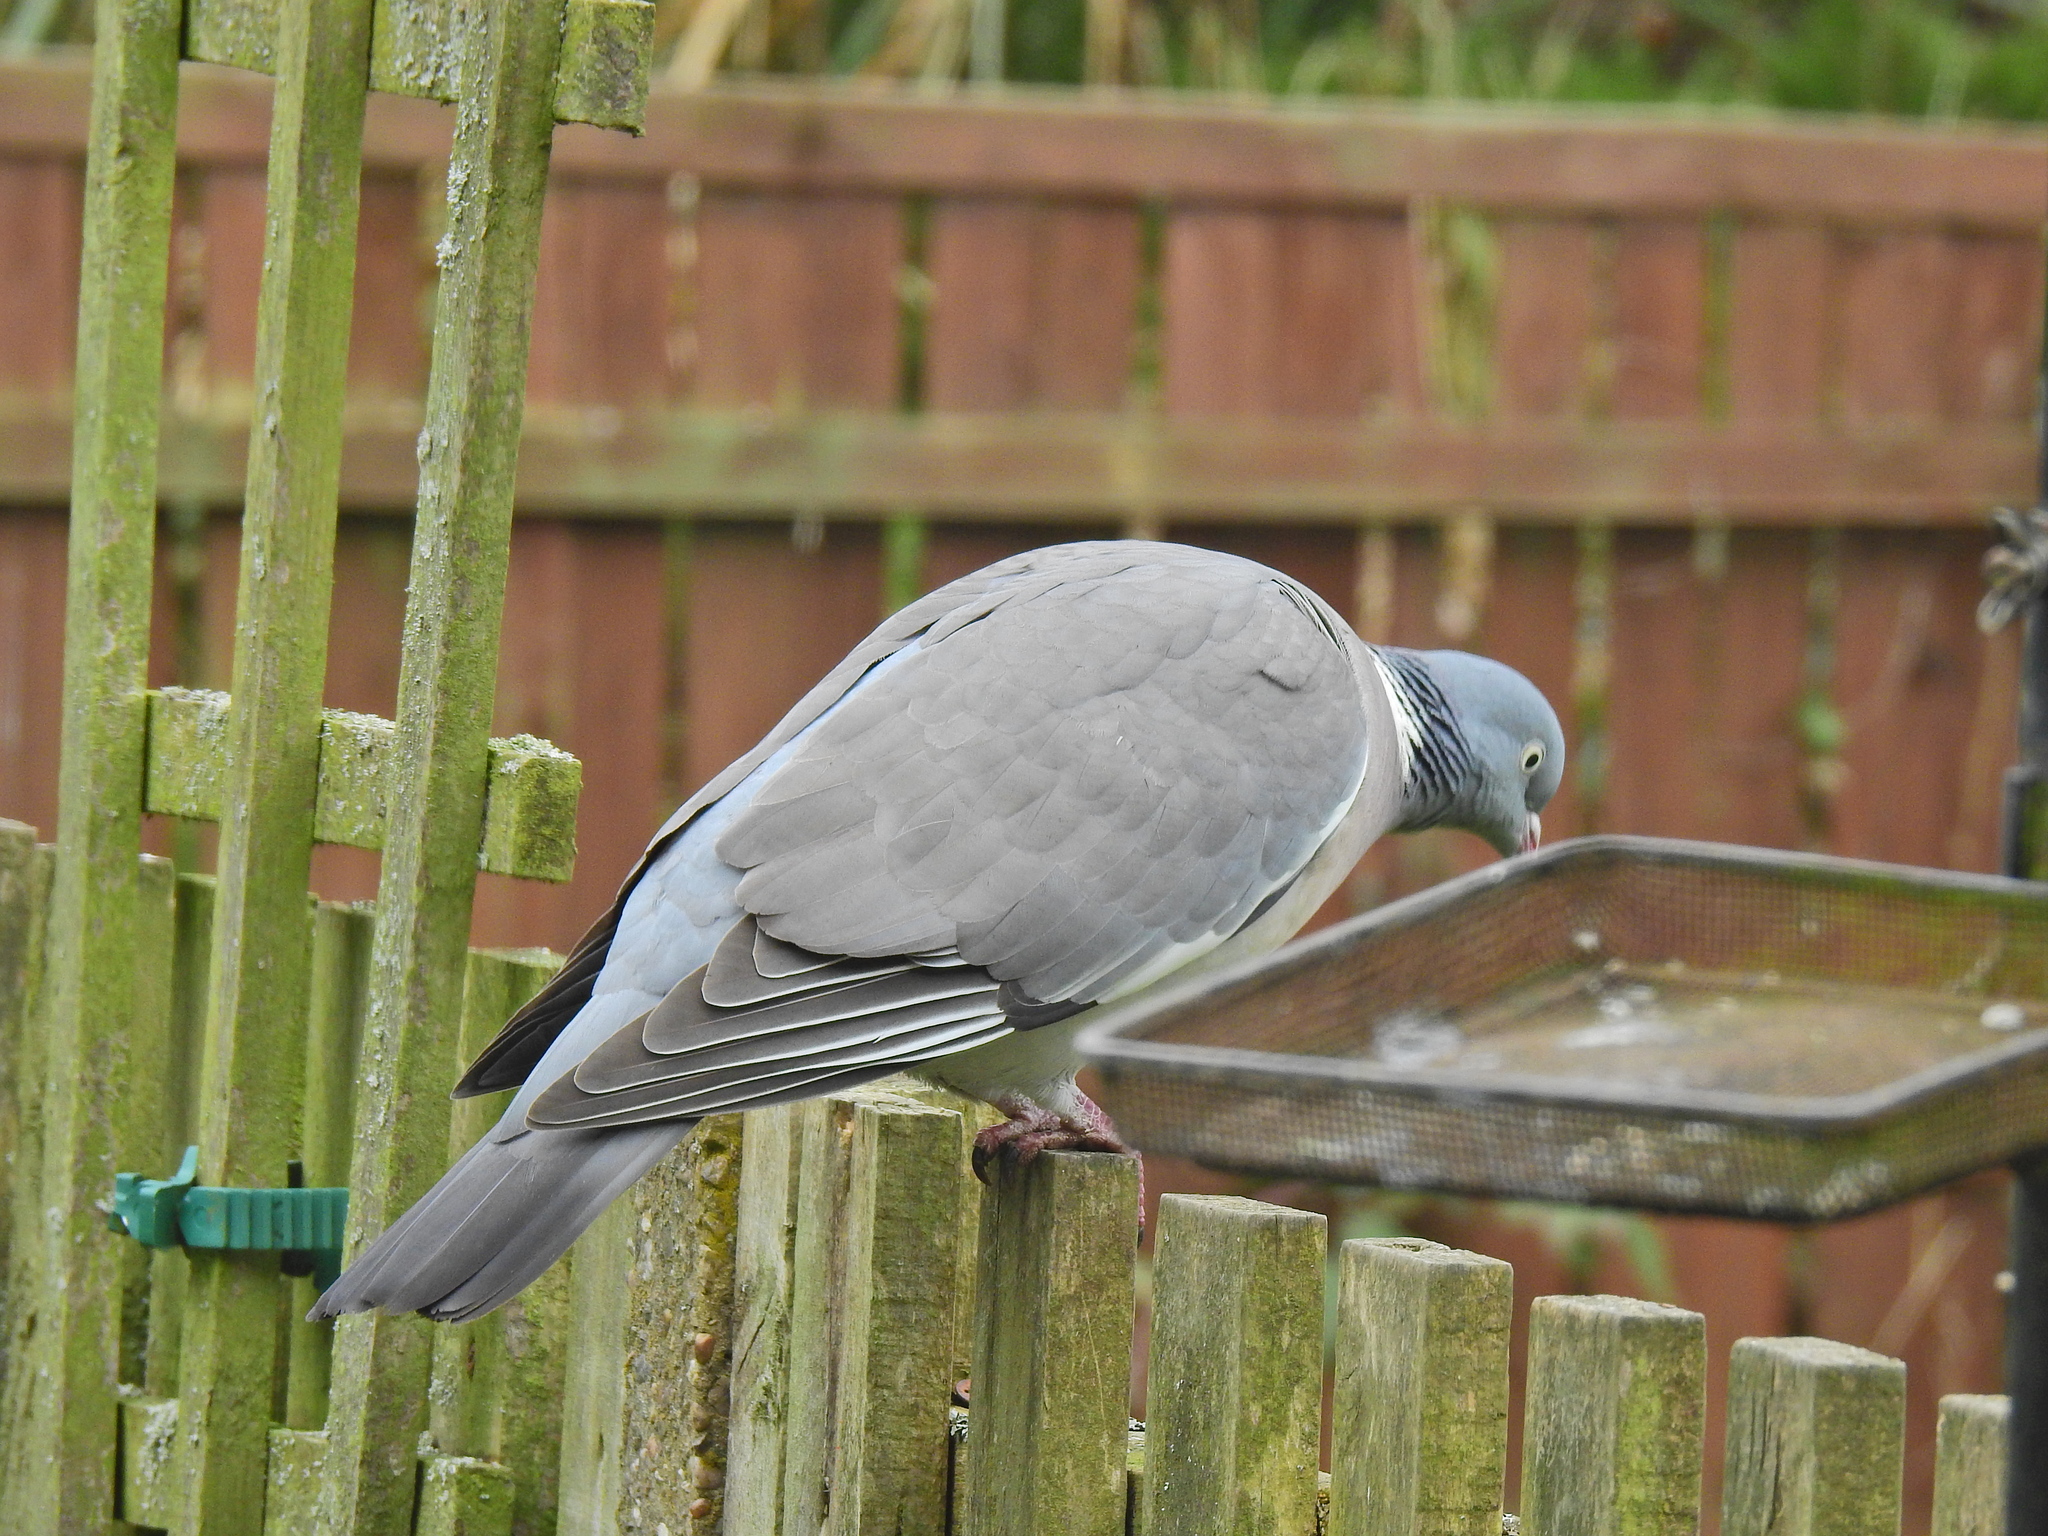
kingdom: Animalia
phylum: Chordata
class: Aves
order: Columbiformes
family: Columbidae
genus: Columba
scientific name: Columba palumbus
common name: Common wood pigeon
